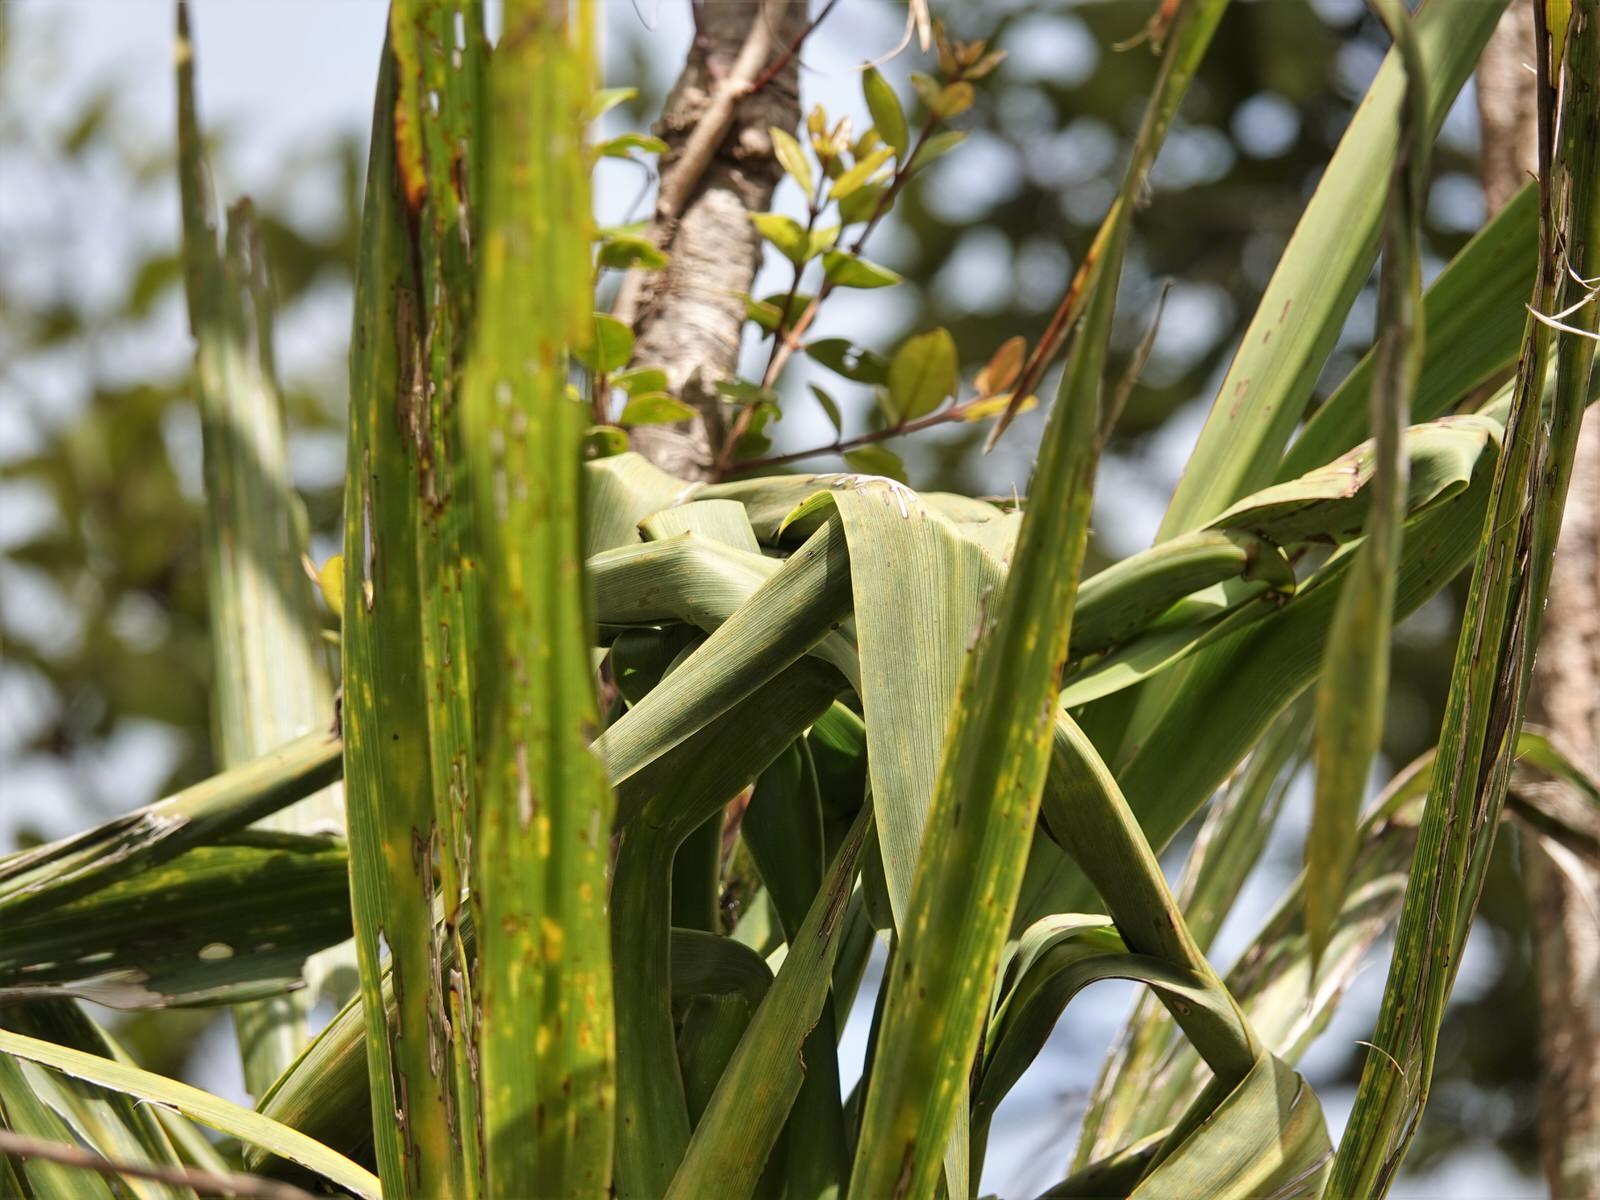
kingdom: Plantae
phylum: Tracheophyta
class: Liliopsida
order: Asparagales
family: Asparagaceae
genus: Cordyline
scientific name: Cordyline banksii
